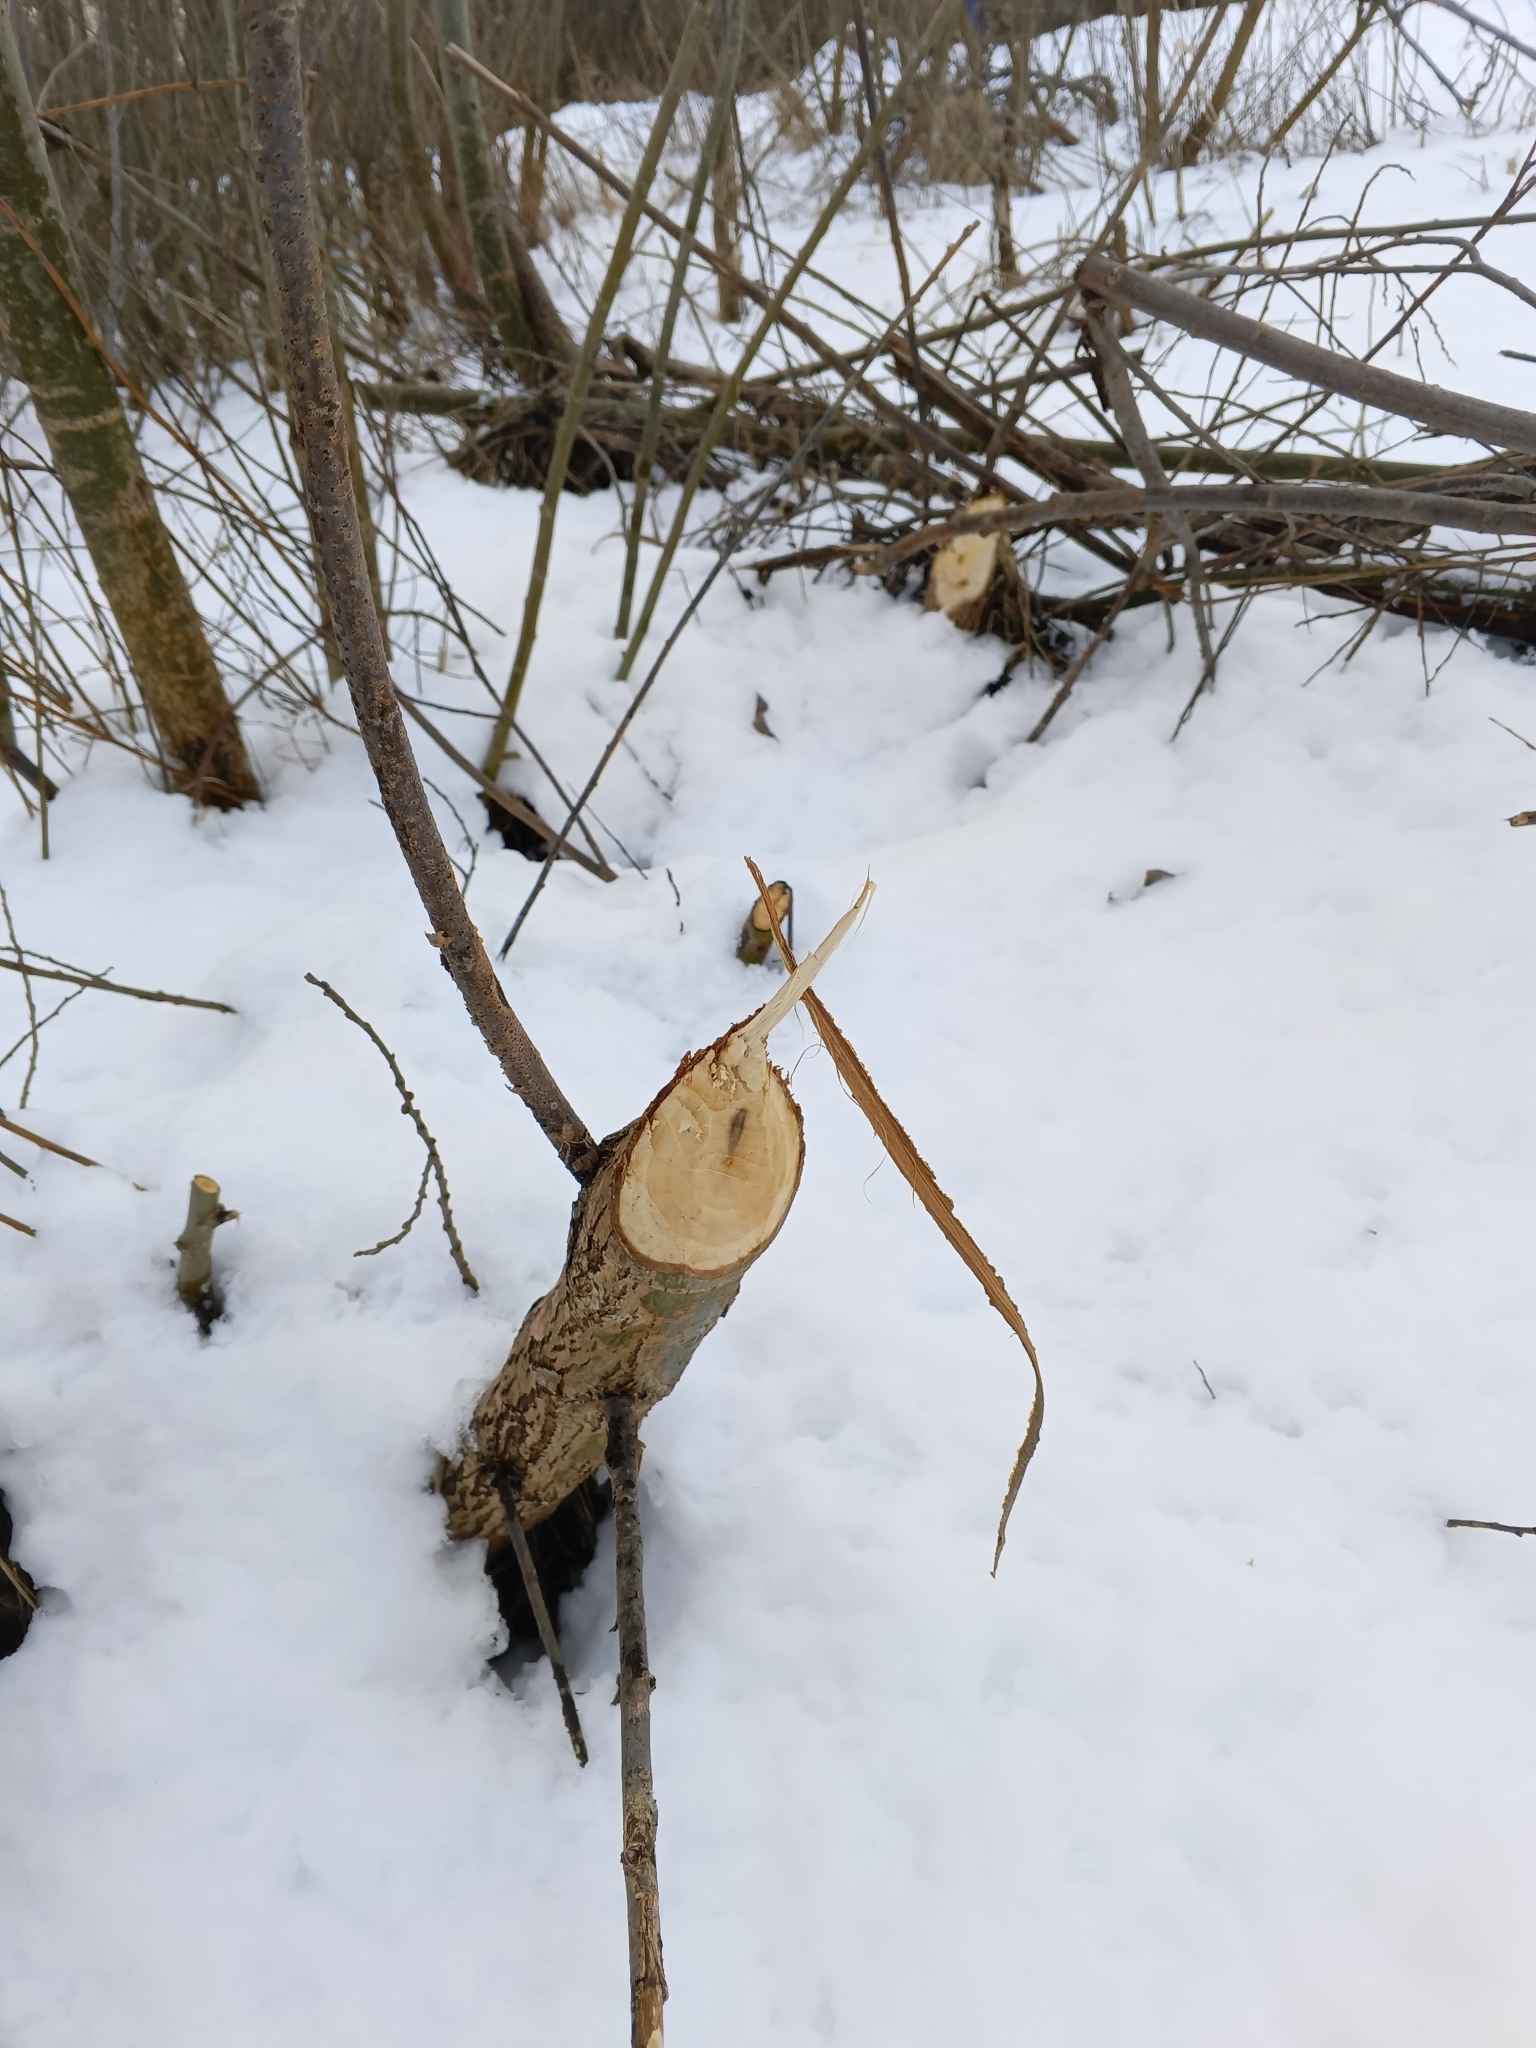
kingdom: Animalia
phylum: Chordata
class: Mammalia
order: Rodentia
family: Castoridae
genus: Castor
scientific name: Castor fiber
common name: Eurasian beaver
